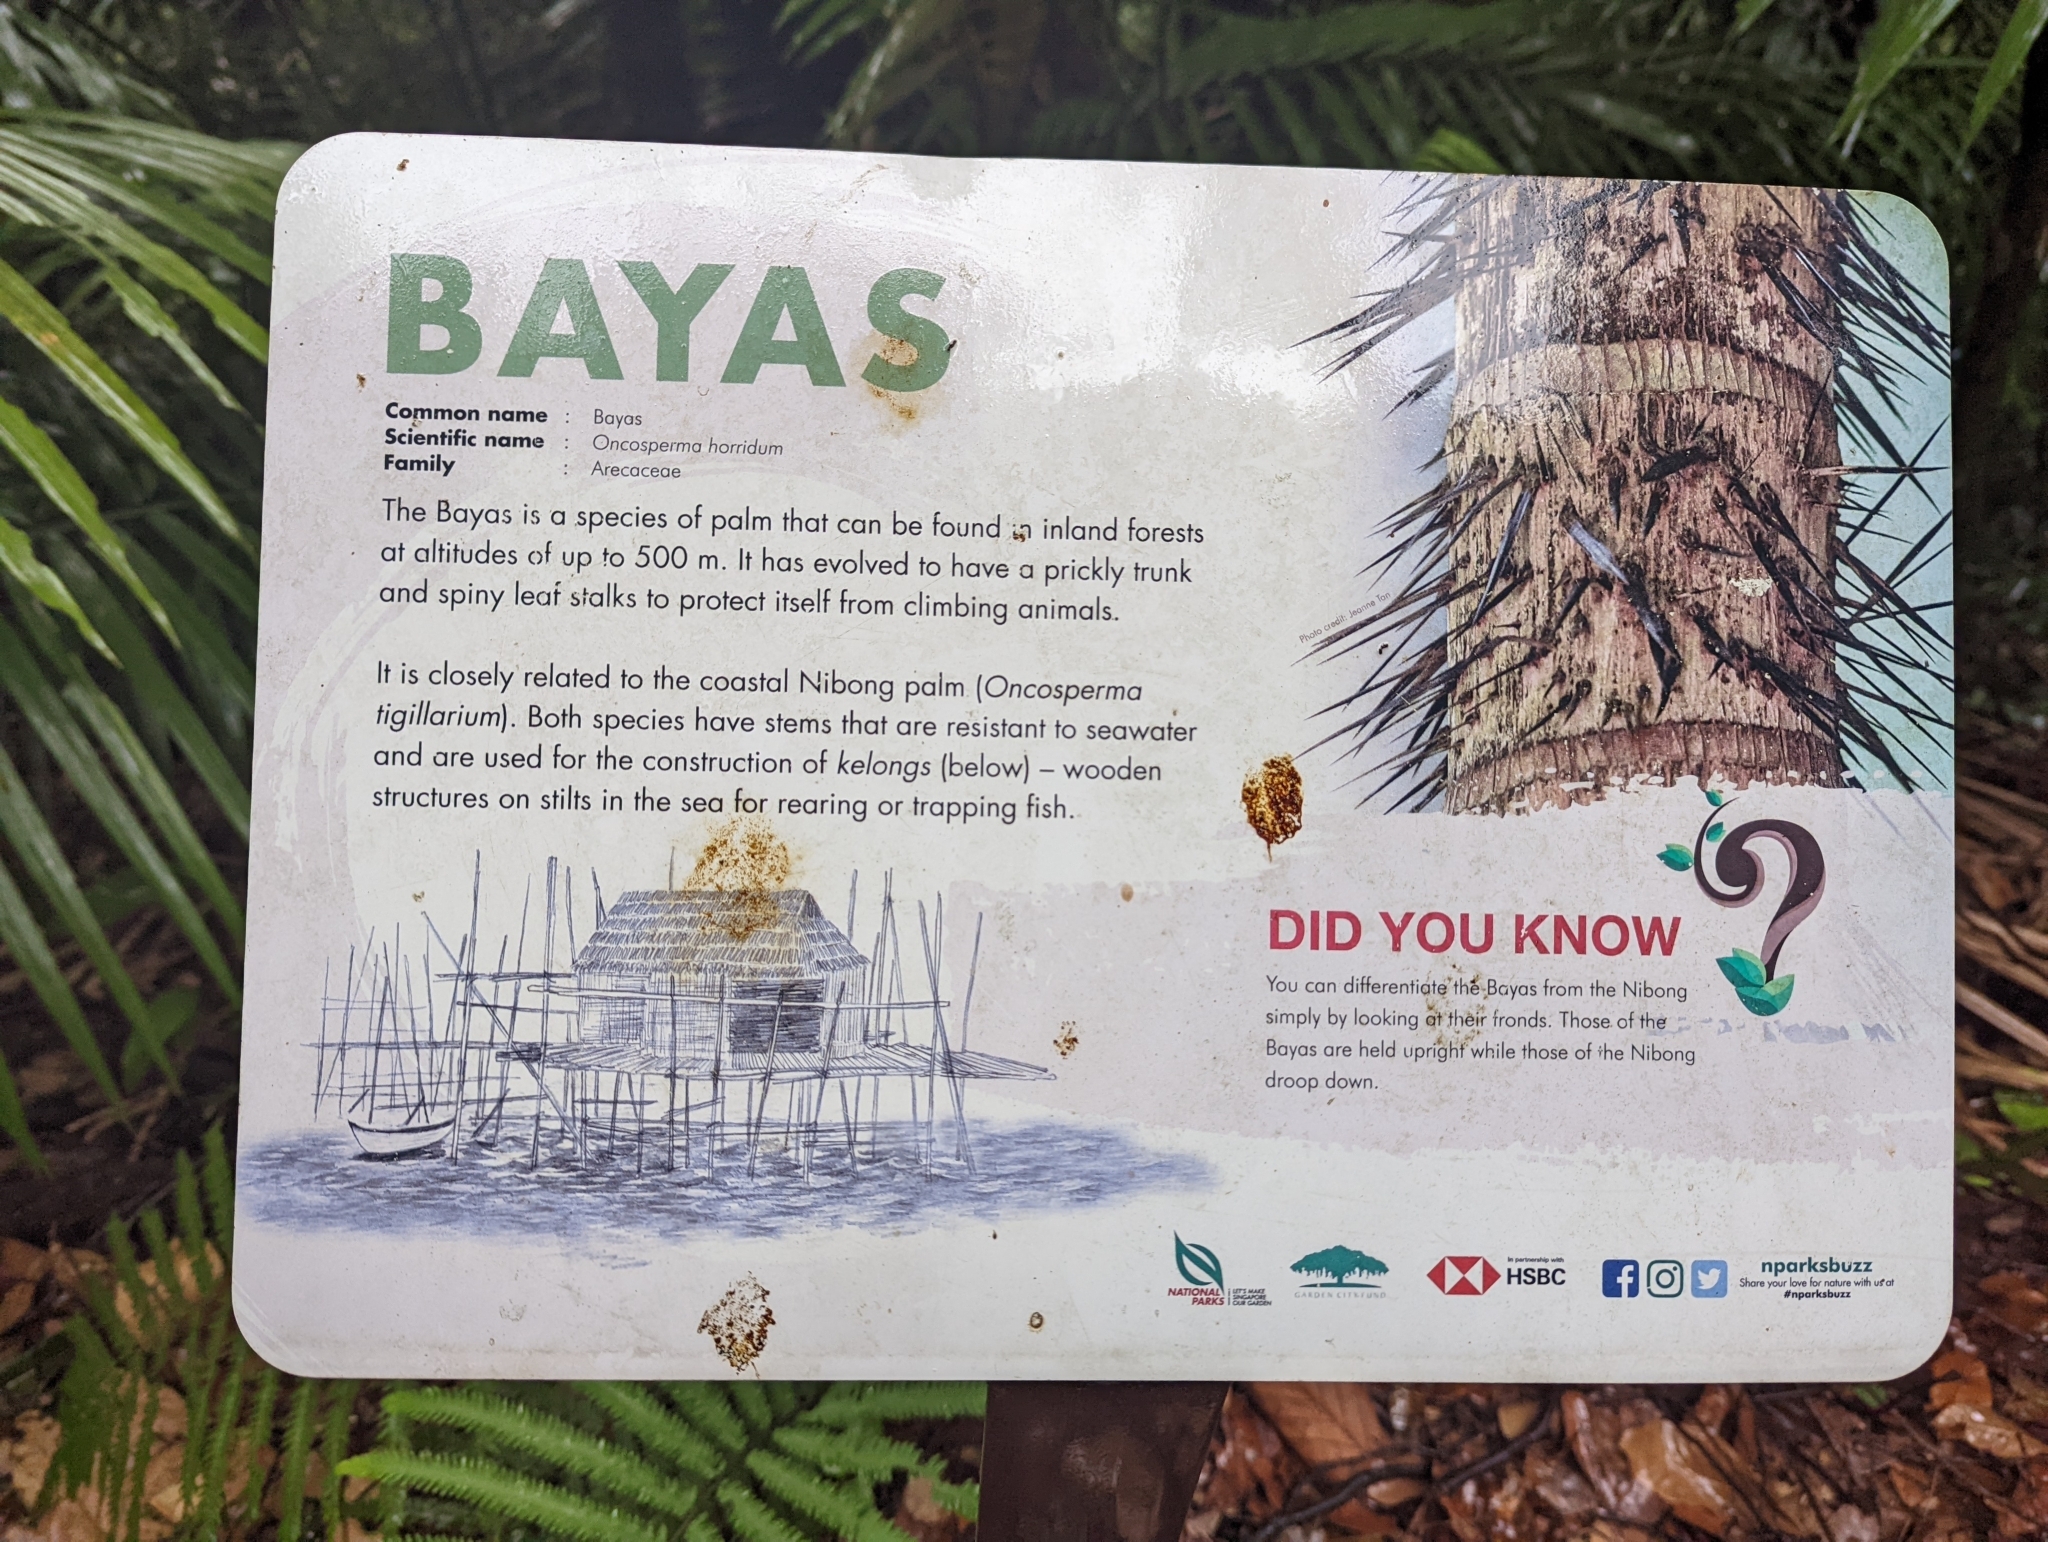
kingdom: Plantae
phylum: Tracheophyta
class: Liliopsida
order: Arecales
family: Arecaceae
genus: Oncosperma
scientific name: Oncosperma horridum
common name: Thorny palm
